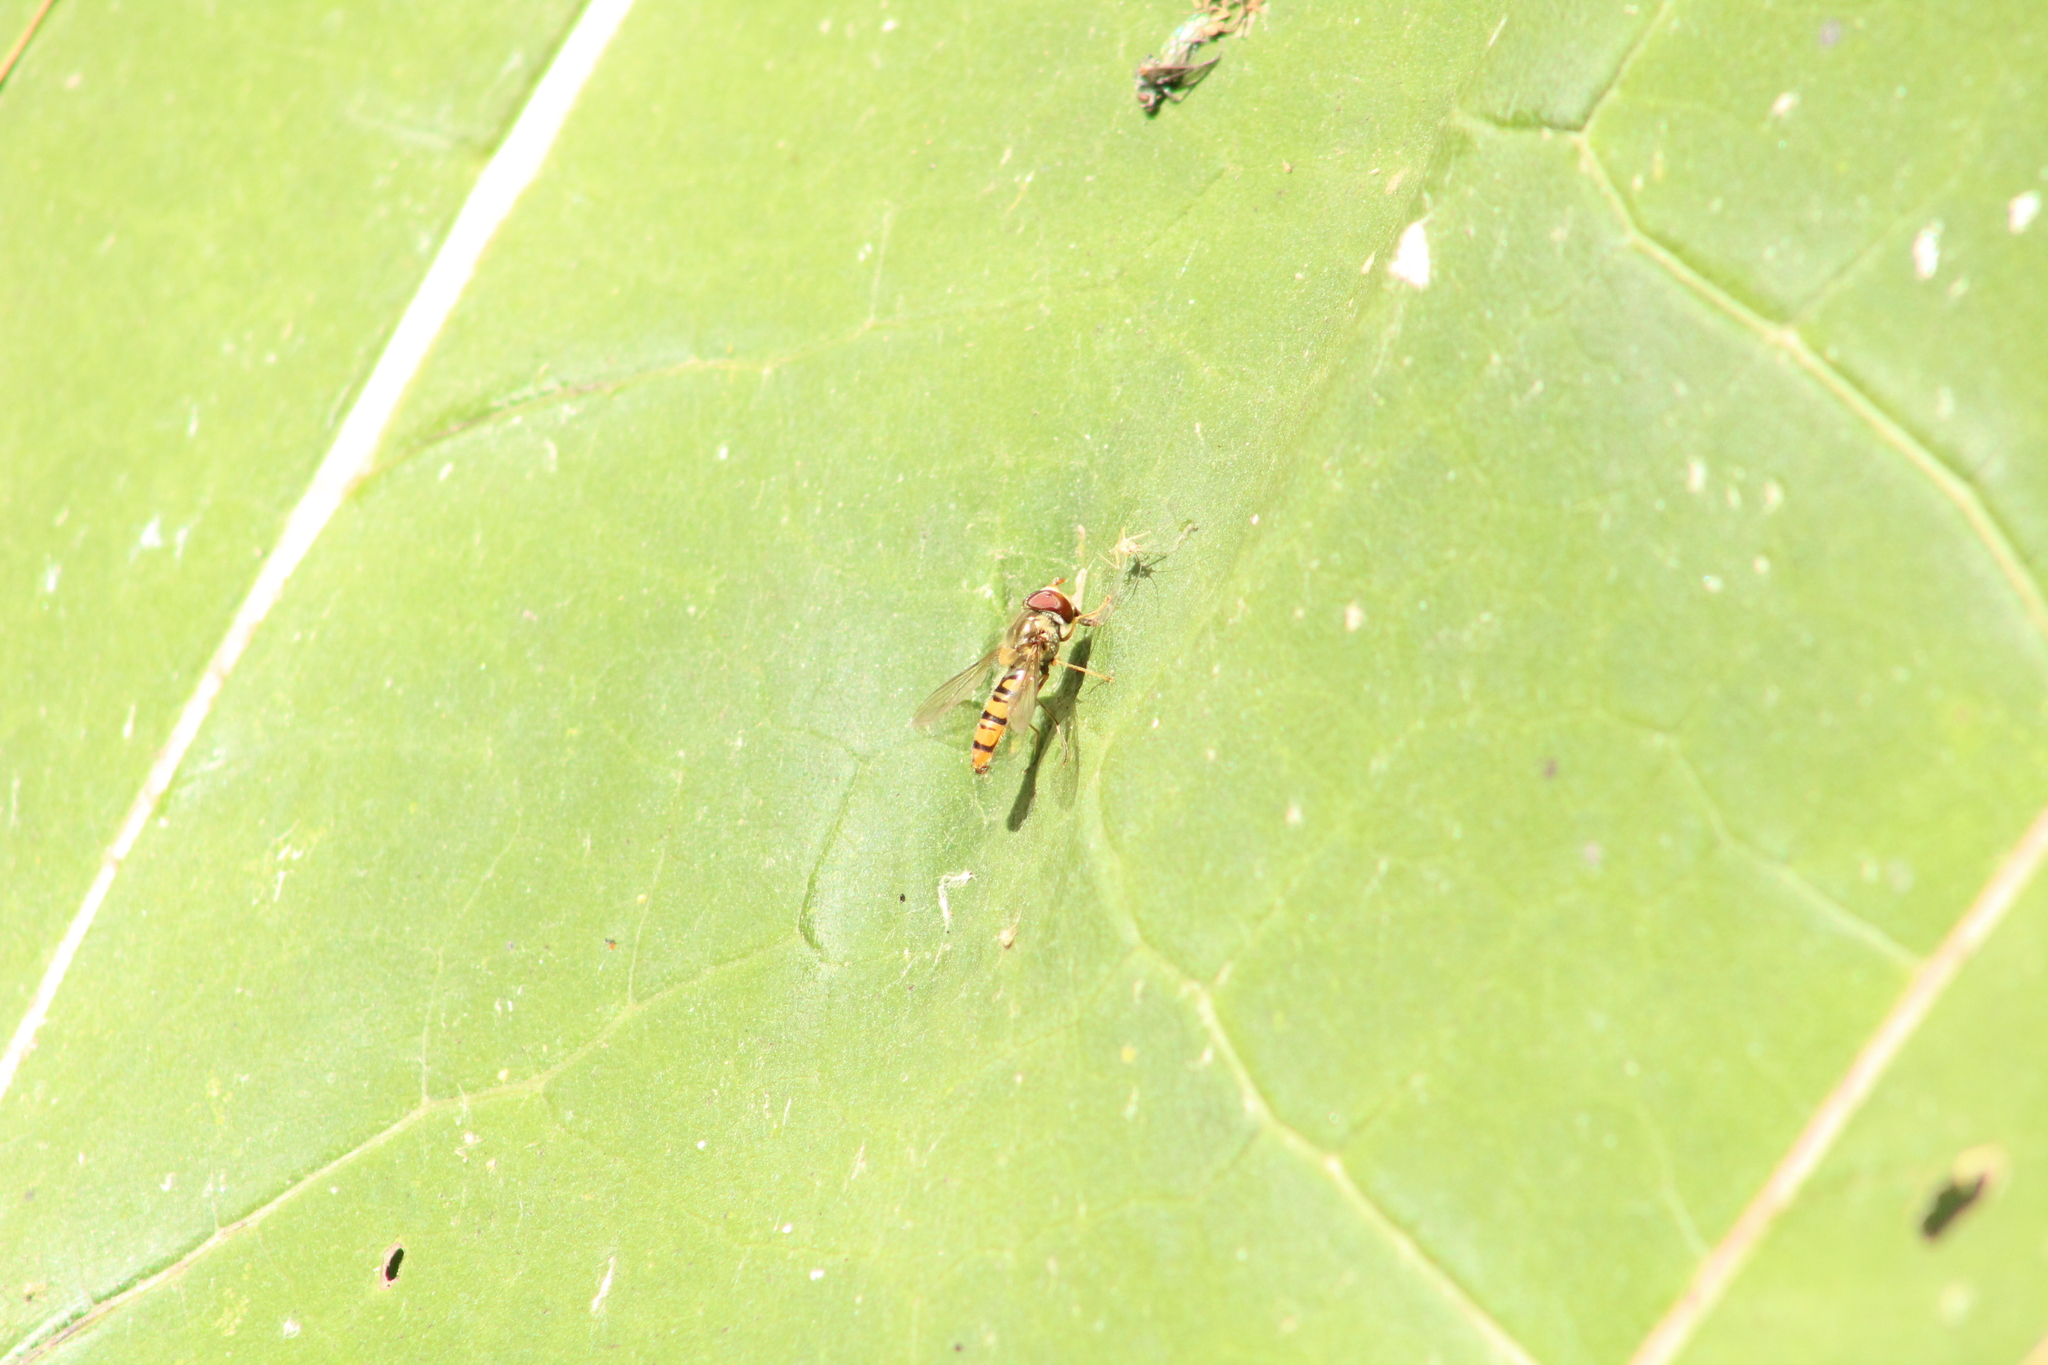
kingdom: Animalia
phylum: Arthropoda
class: Insecta
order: Diptera
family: Syrphidae
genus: Episyrphus
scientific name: Episyrphus balteatus
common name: Marmalade hoverfly
